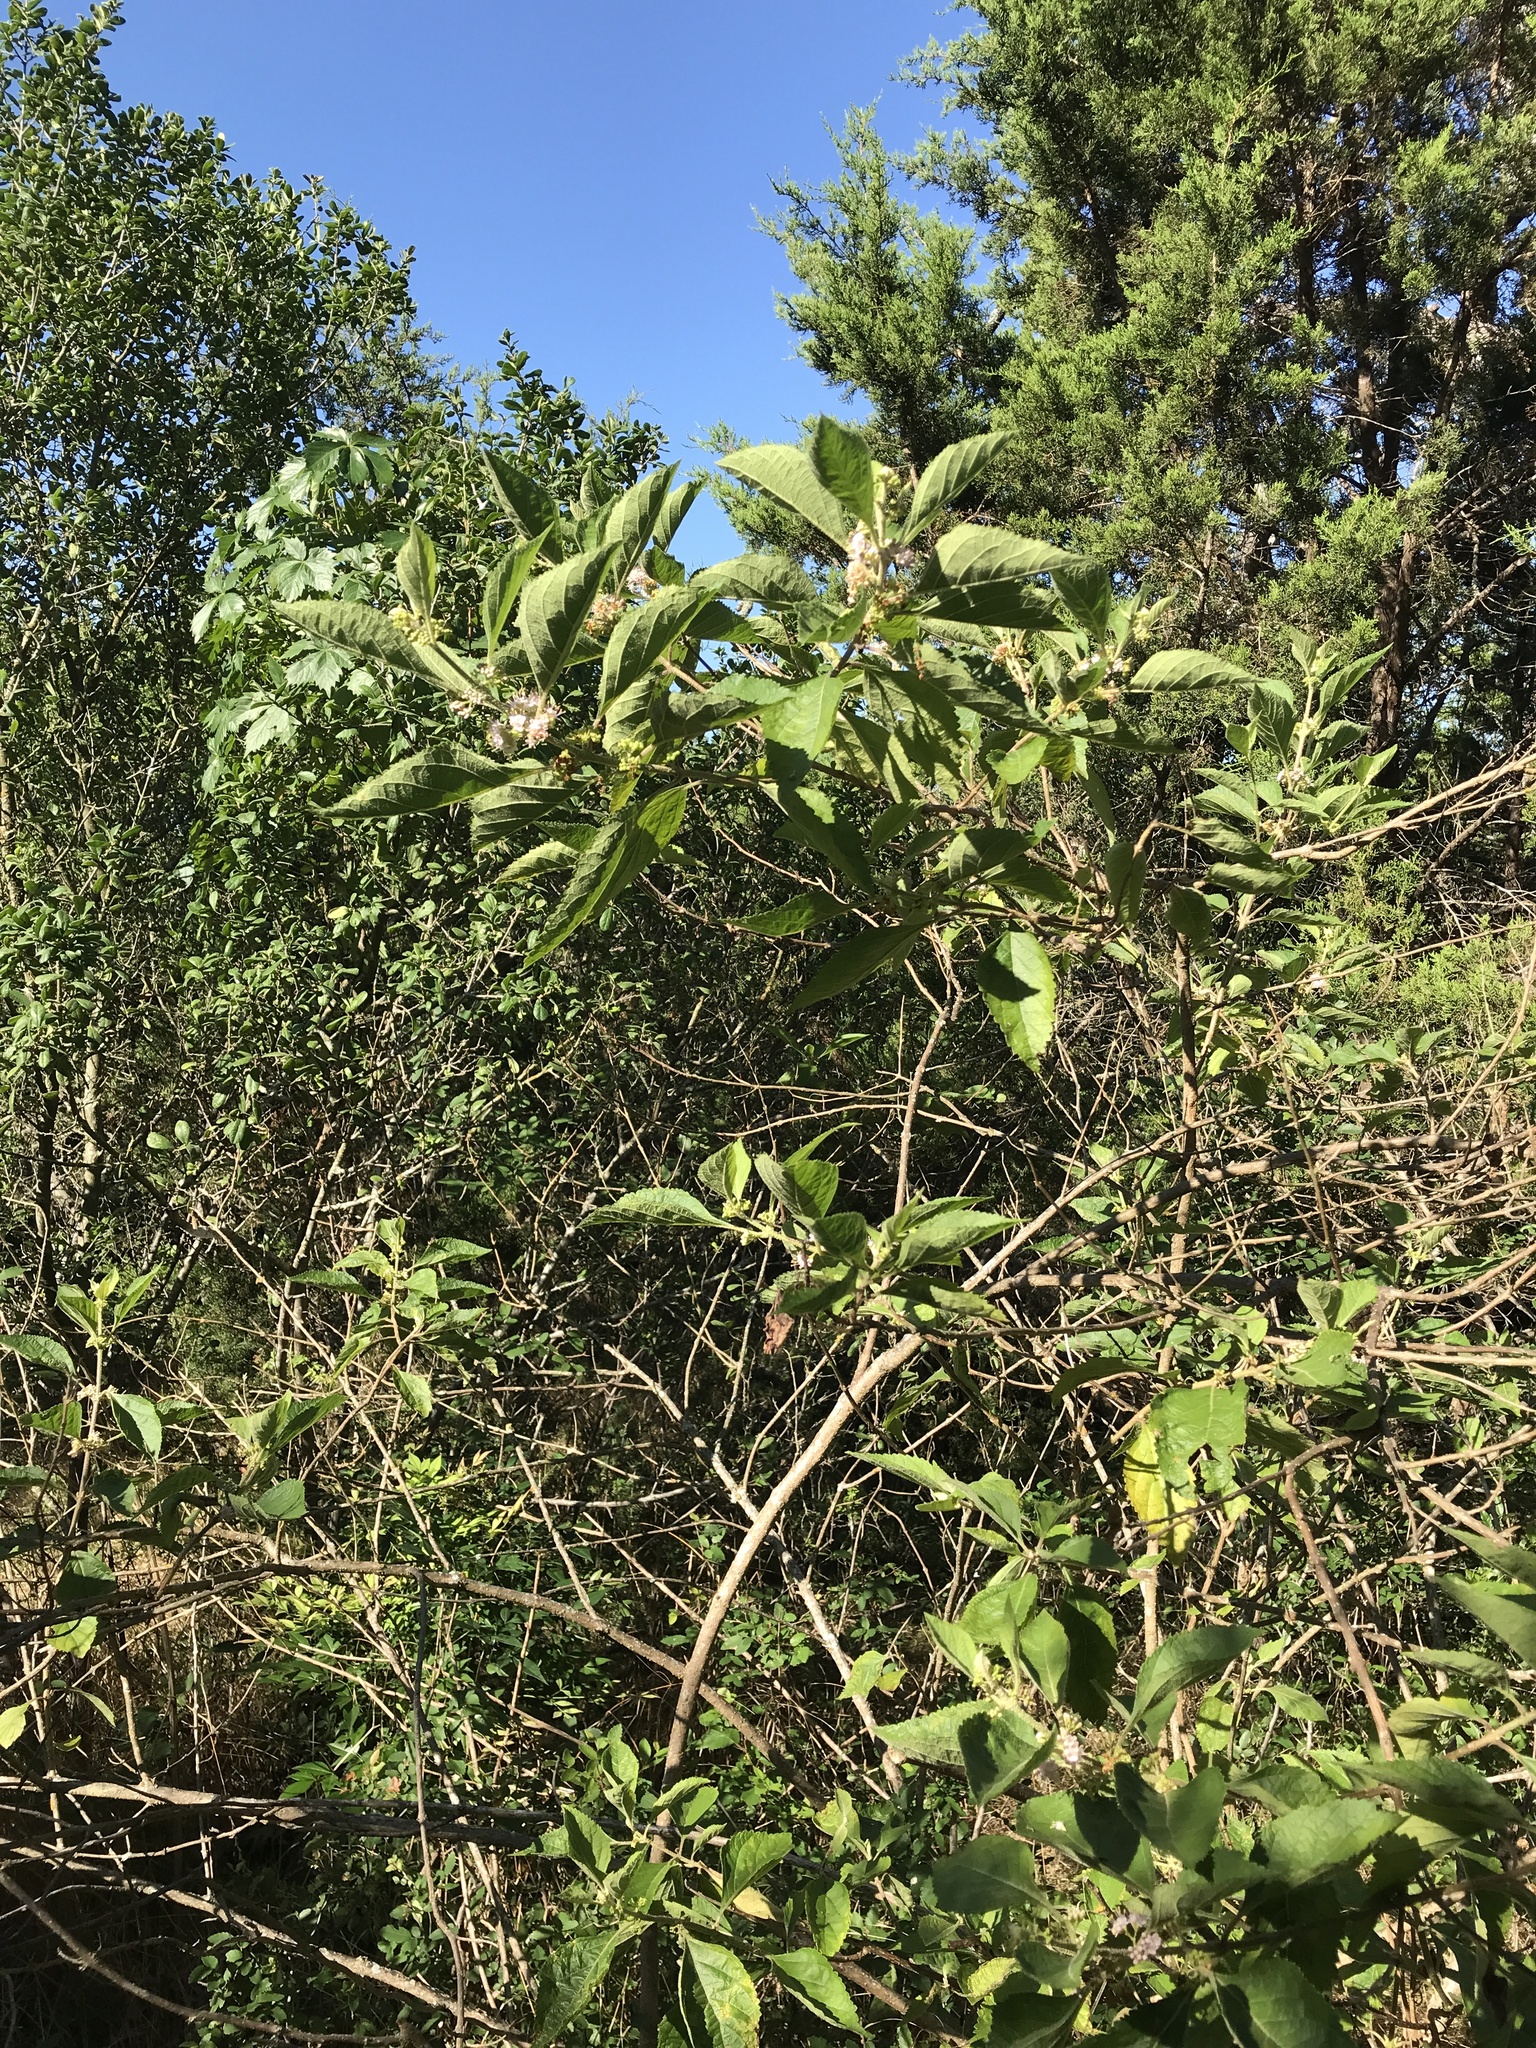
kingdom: Plantae
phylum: Tracheophyta
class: Magnoliopsida
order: Lamiales
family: Lamiaceae
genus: Callicarpa
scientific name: Callicarpa americana
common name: American beautyberry
